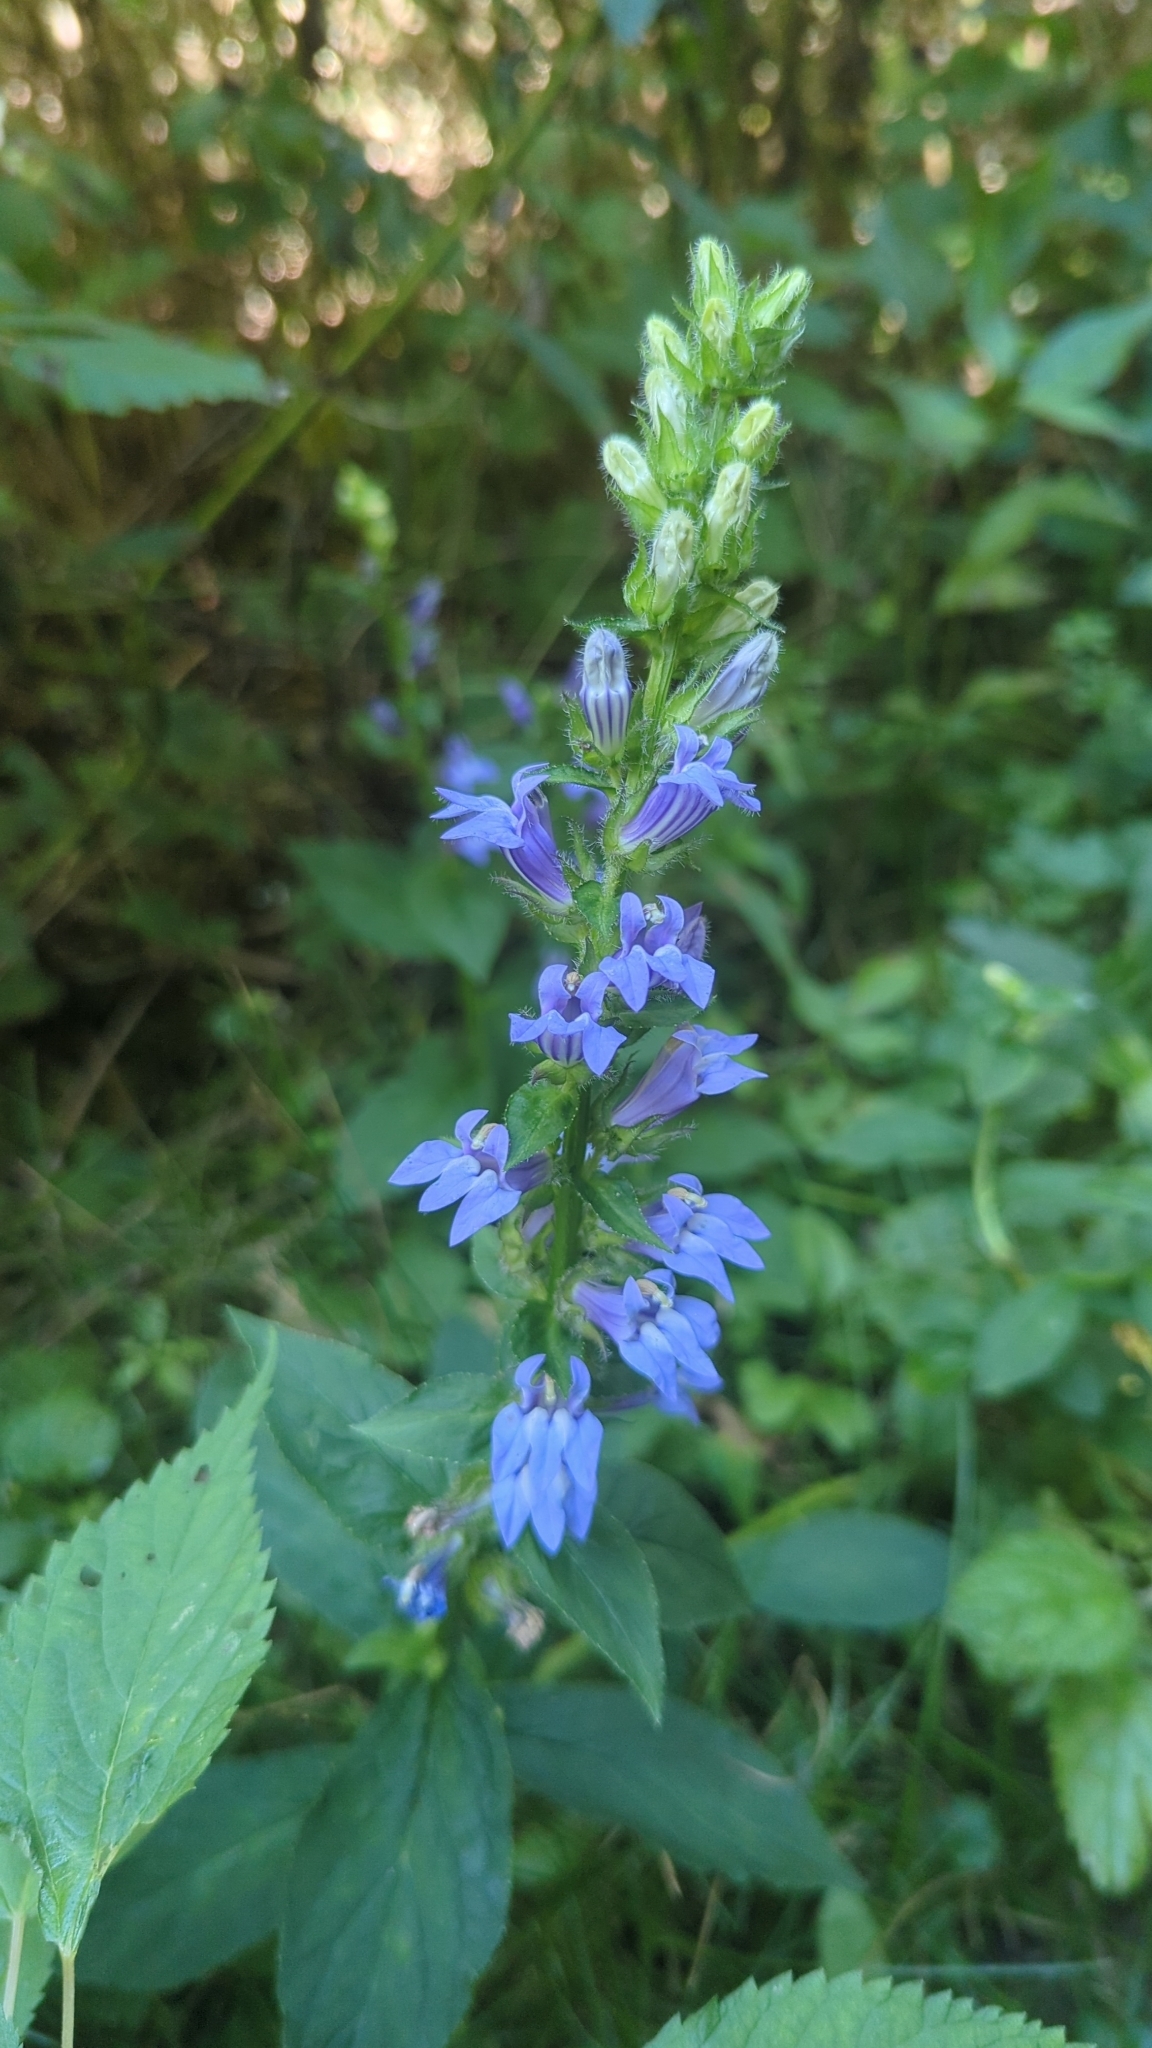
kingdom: Plantae
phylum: Tracheophyta
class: Magnoliopsida
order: Asterales
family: Campanulaceae
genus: Lobelia
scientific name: Lobelia siphilitica
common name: Great lobelia
